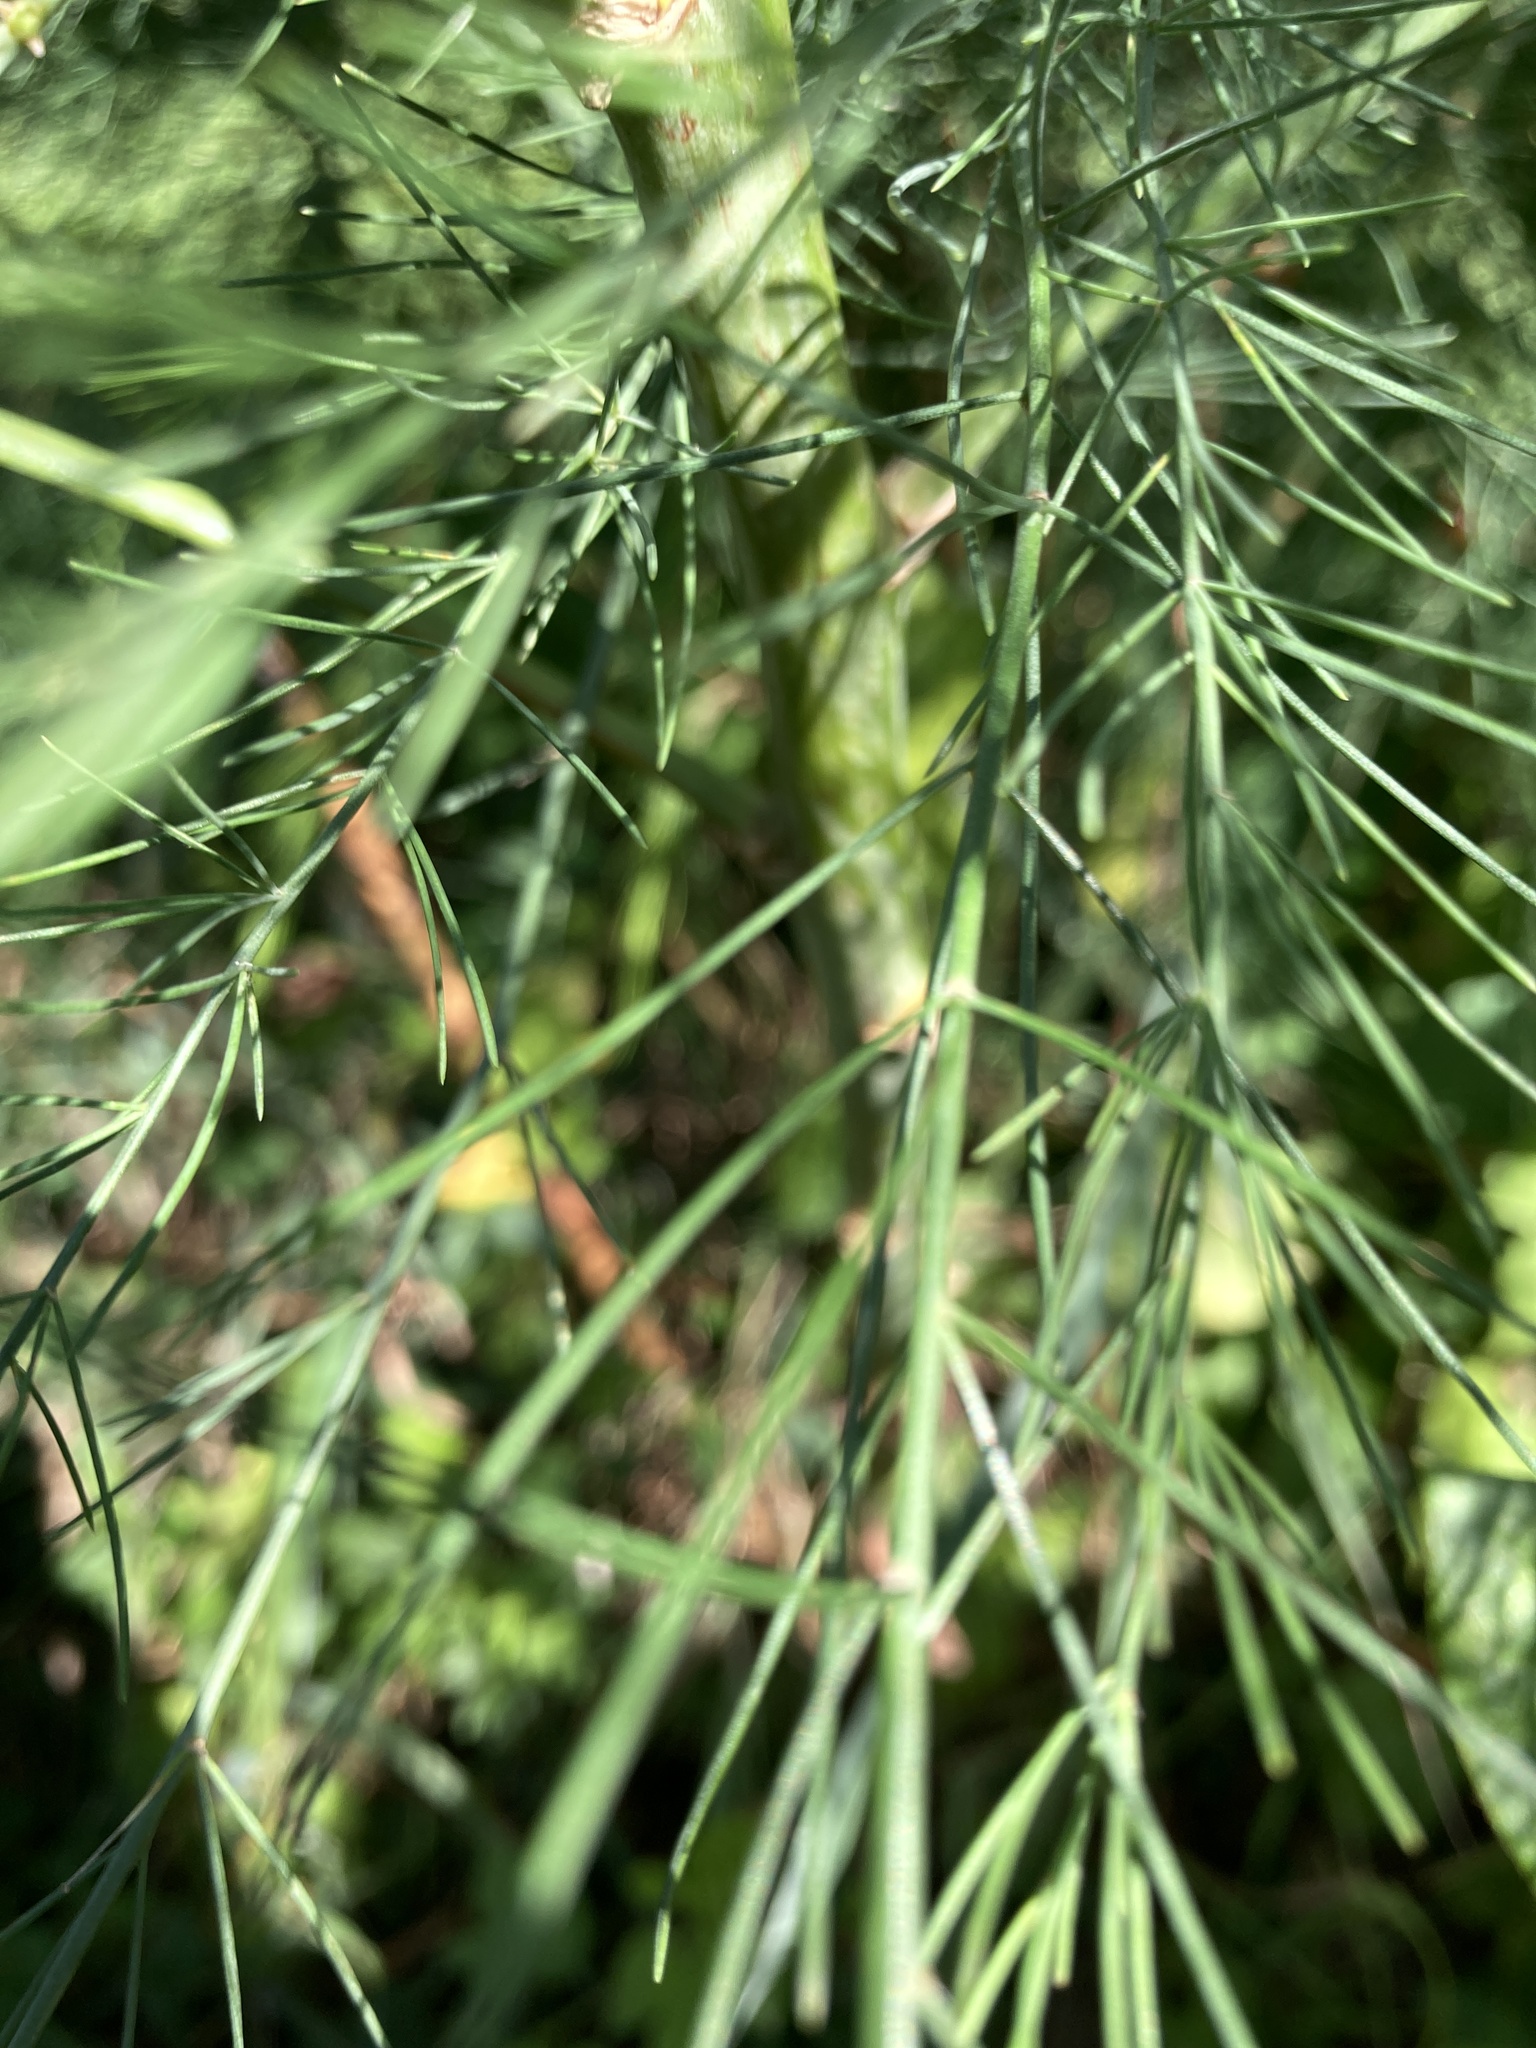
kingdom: Plantae
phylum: Tracheophyta
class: Liliopsida
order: Asparagales
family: Asparagaceae
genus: Asparagus
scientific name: Asparagus officinalis
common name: Garden asparagus
